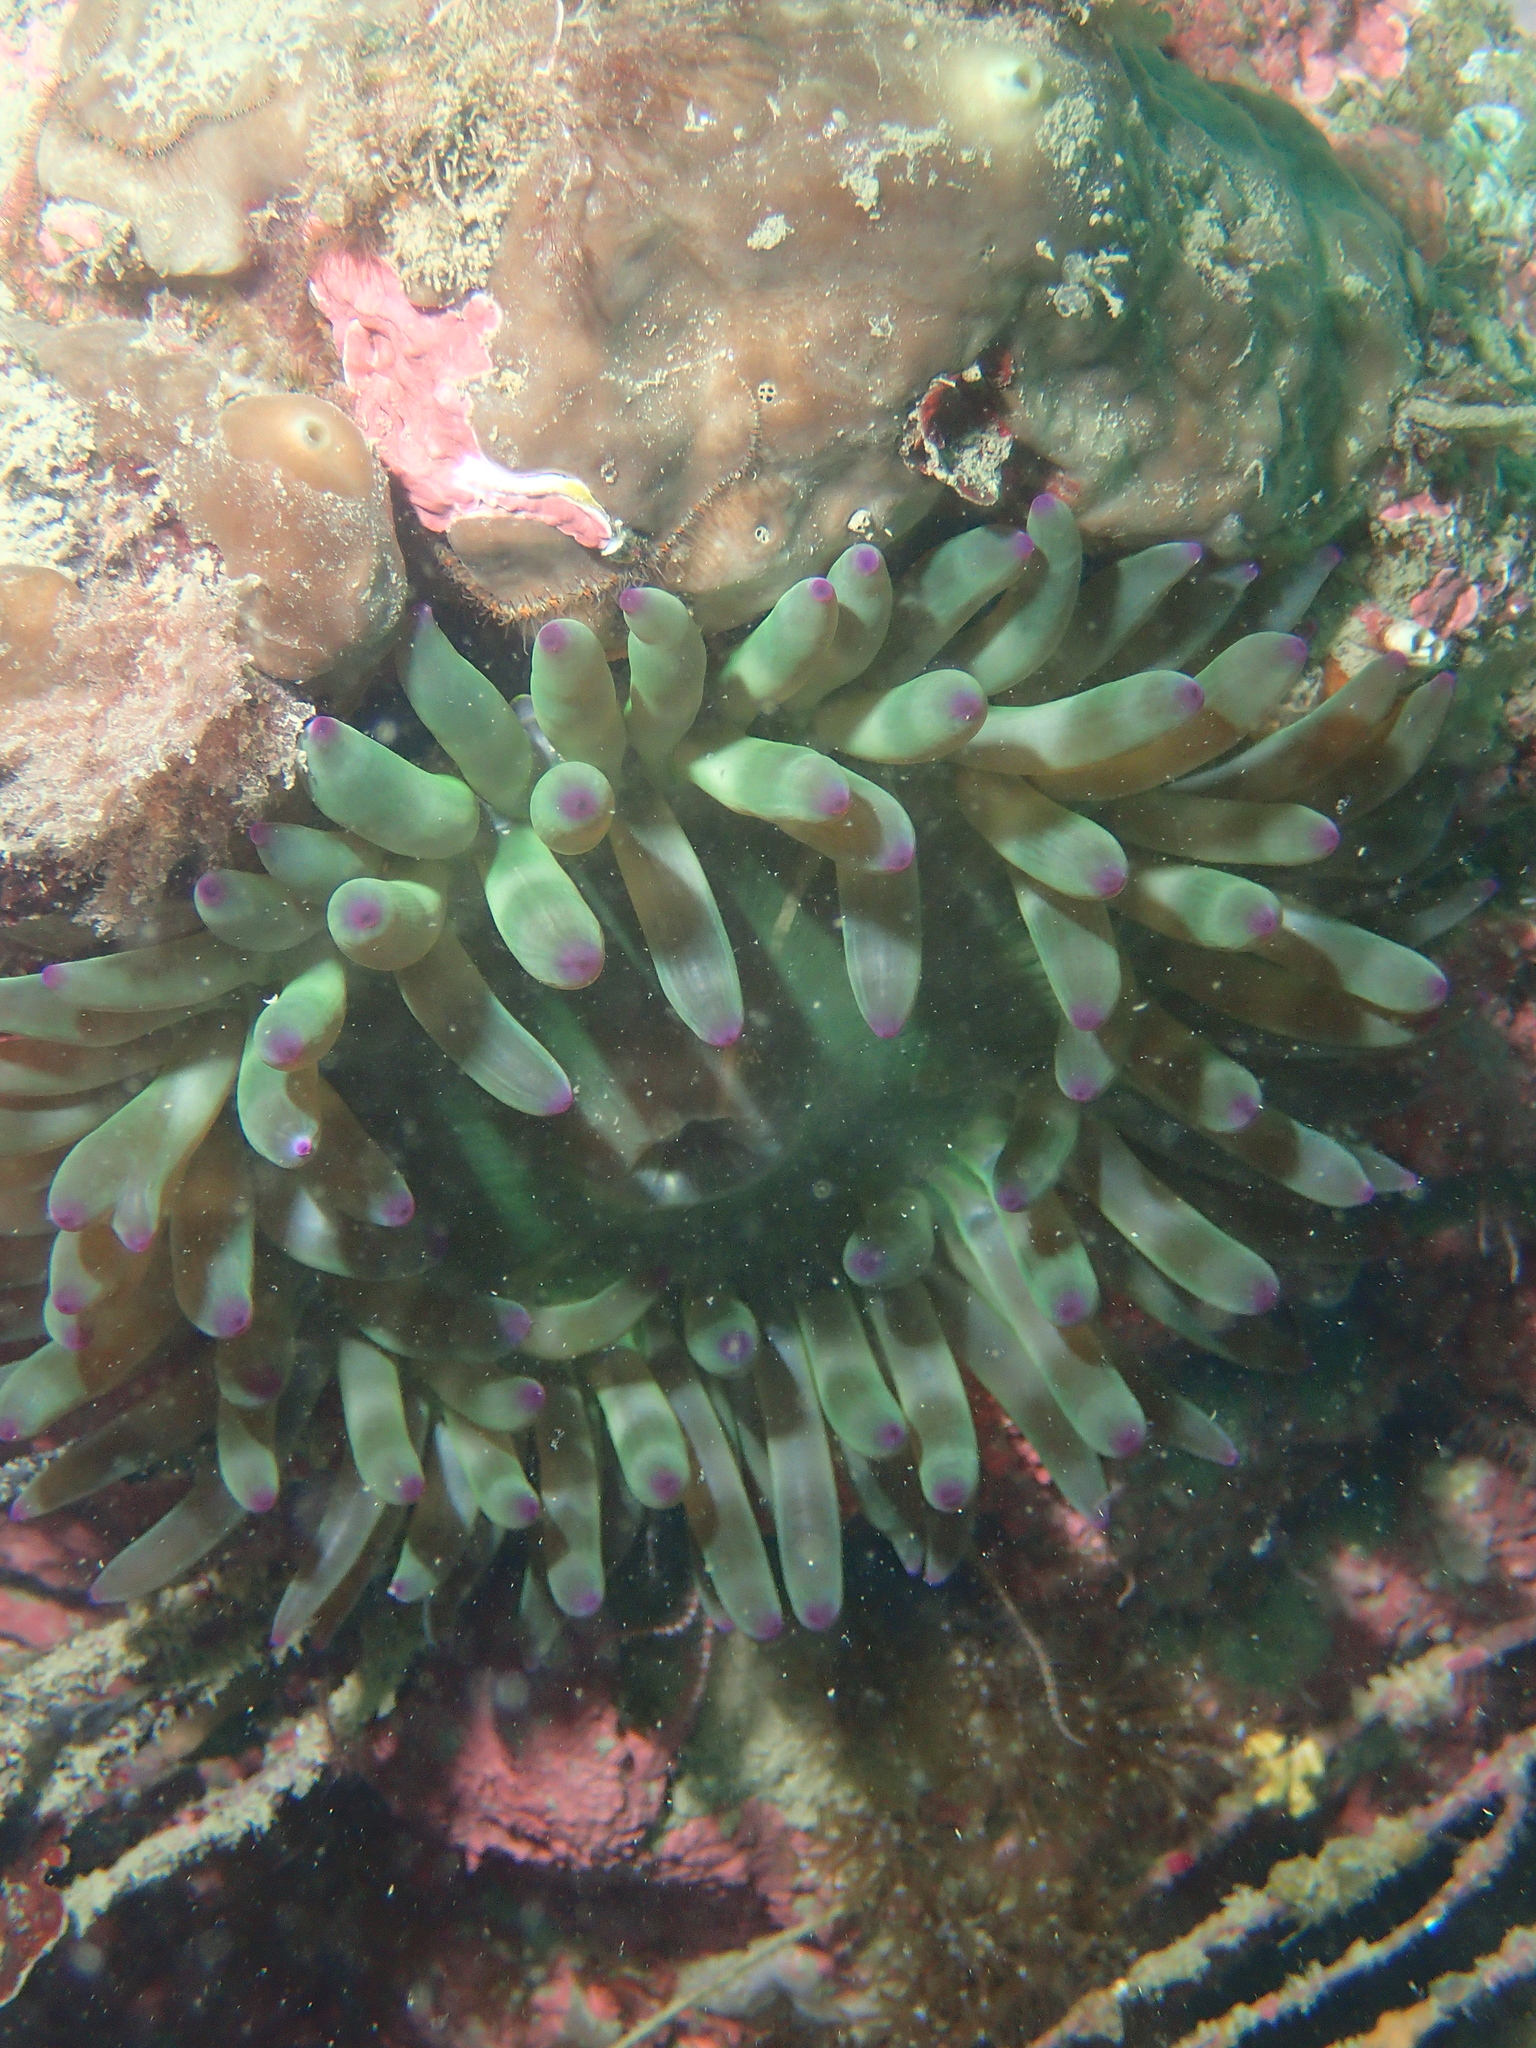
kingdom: Animalia
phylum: Cnidaria
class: Anthozoa
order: Actiniaria
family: Actiniidae
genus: Cribrinopsis
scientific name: Cribrinopsis crassa
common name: Fat anemone
